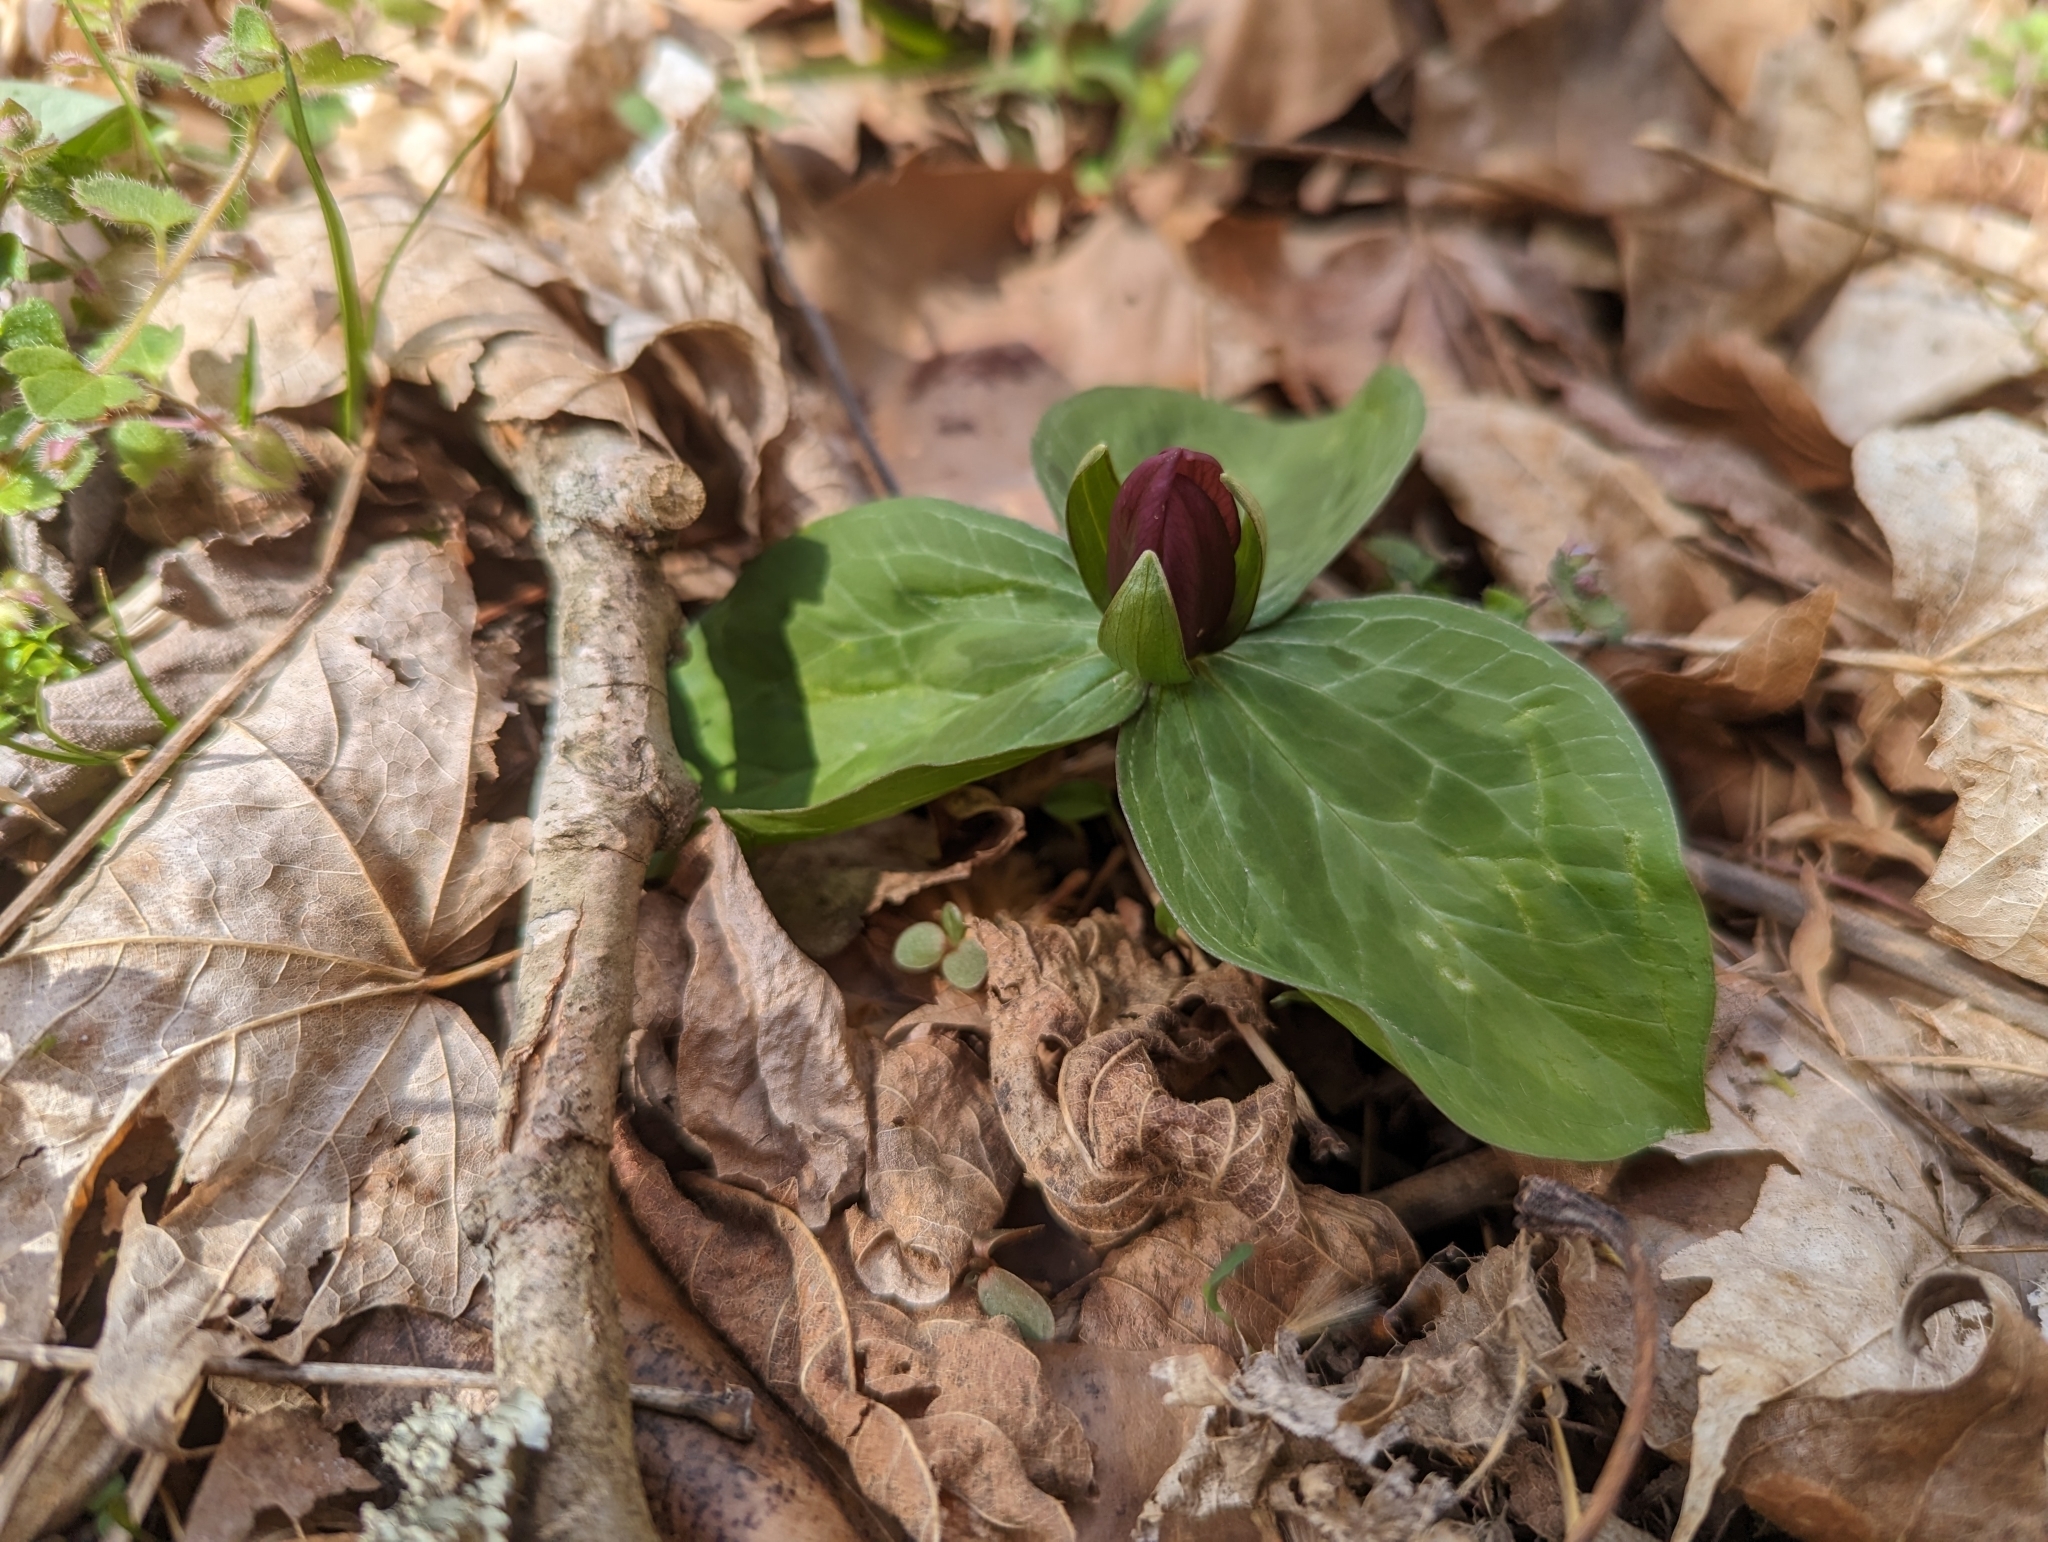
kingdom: Plantae
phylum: Tracheophyta
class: Liliopsida
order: Liliales
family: Melanthiaceae
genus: Trillium
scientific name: Trillium sessile
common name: Sessile trillium
